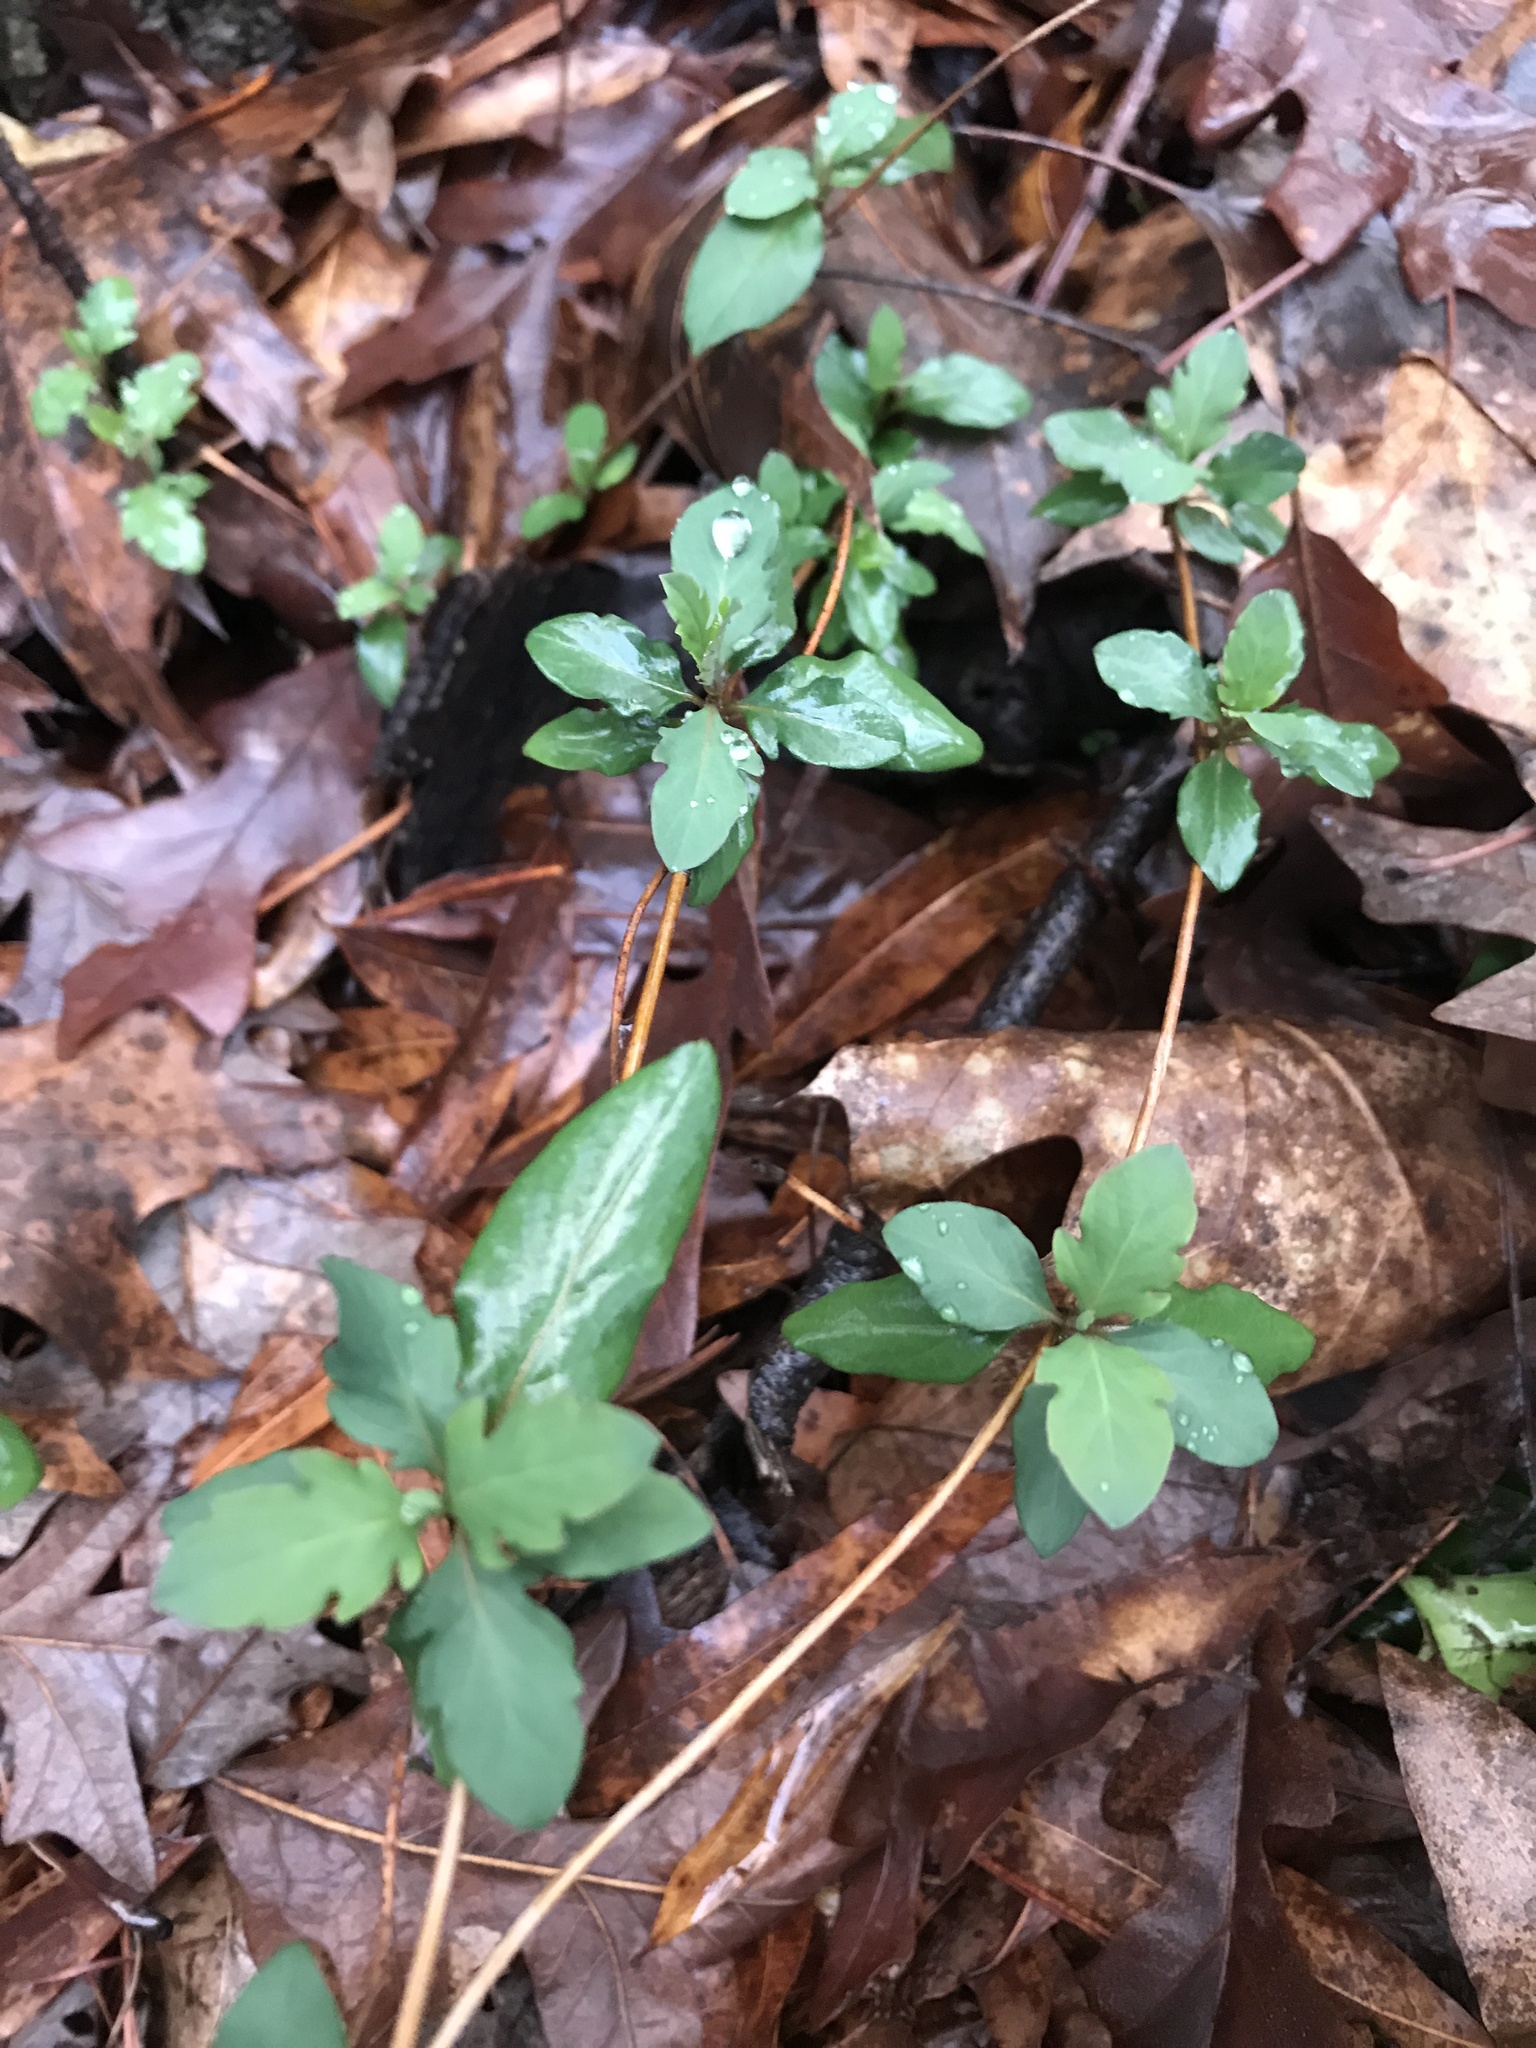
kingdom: Plantae
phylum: Tracheophyta
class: Magnoliopsida
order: Dipsacales
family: Caprifoliaceae
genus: Lonicera
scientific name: Lonicera japonica
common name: Japanese honeysuckle
